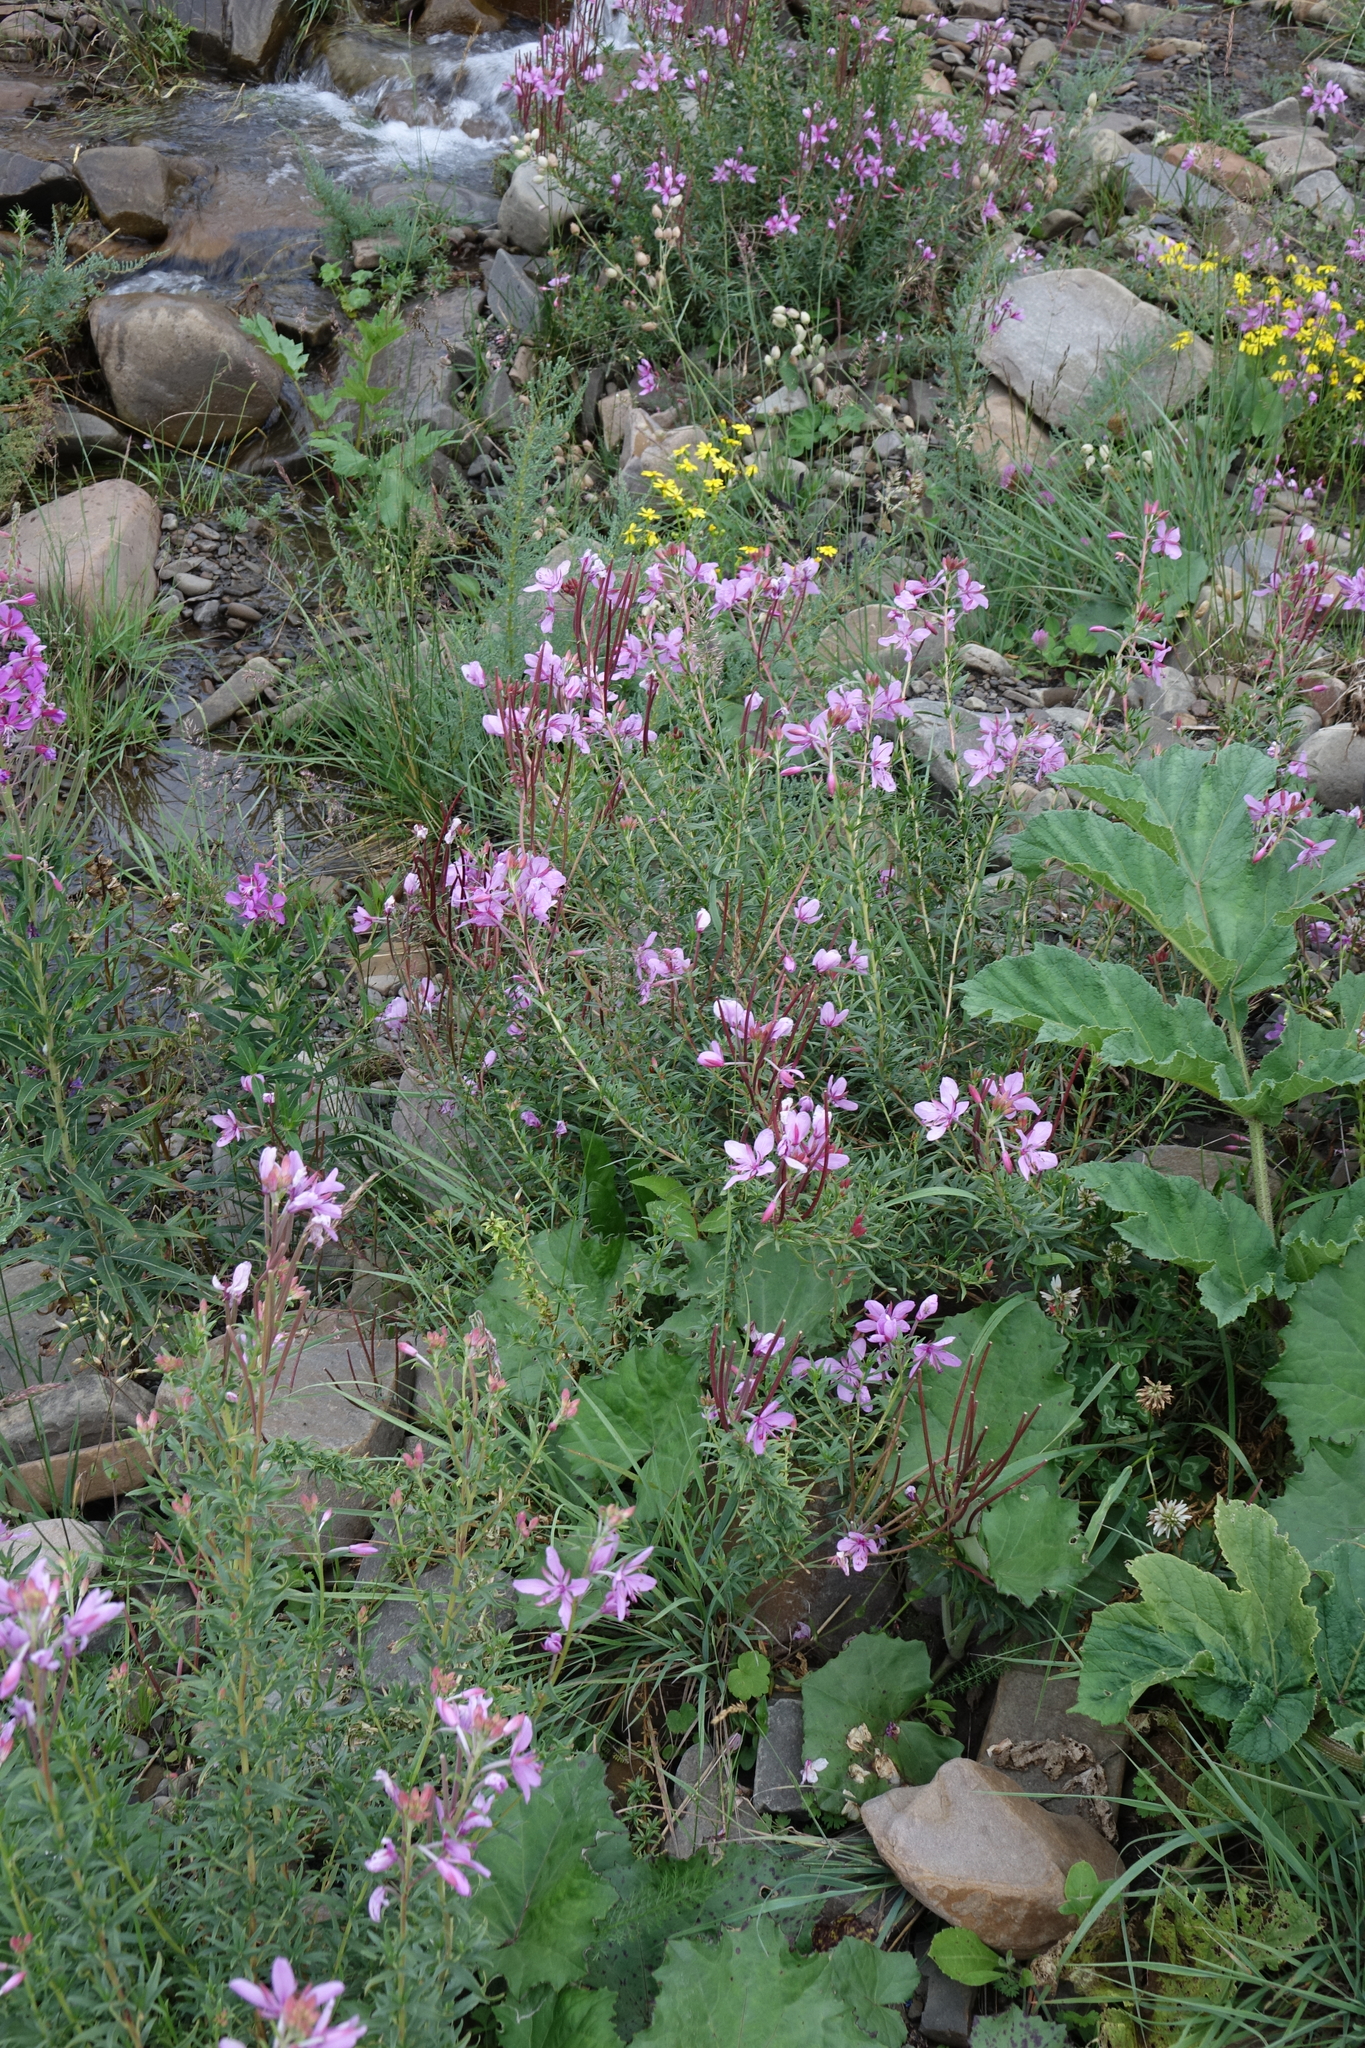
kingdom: Plantae
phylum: Tracheophyta
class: Magnoliopsida
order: Myrtales
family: Onagraceae
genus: Chamaenerion
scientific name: Chamaenerion colchicum
